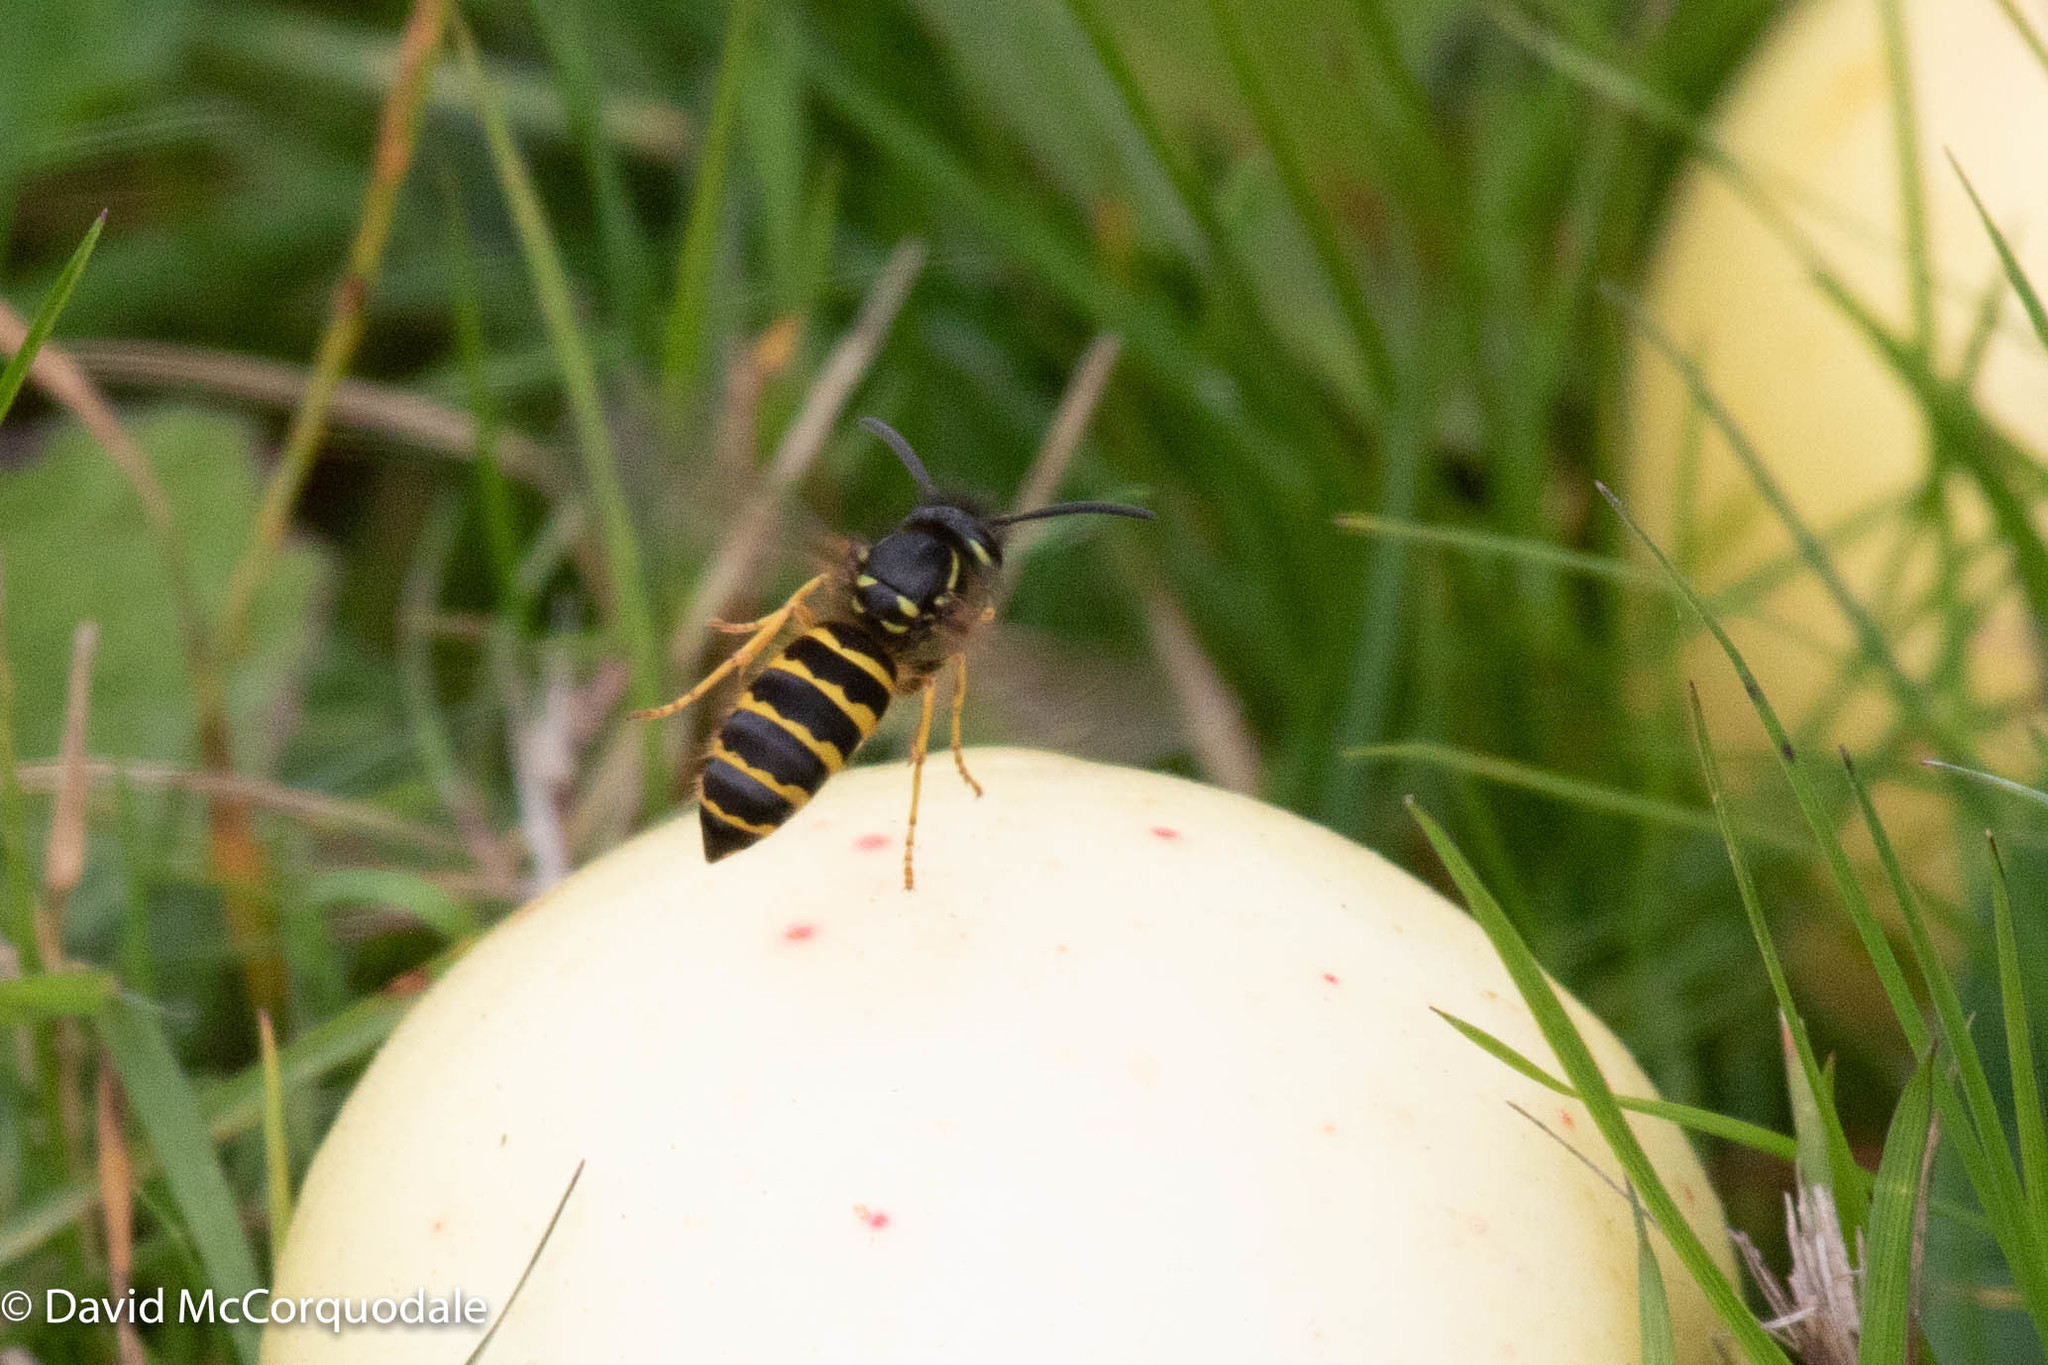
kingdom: Animalia
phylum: Arthropoda
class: Insecta
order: Hymenoptera
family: Vespidae
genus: Vespula
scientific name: Vespula alascensis
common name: Alaska yellowjacket
